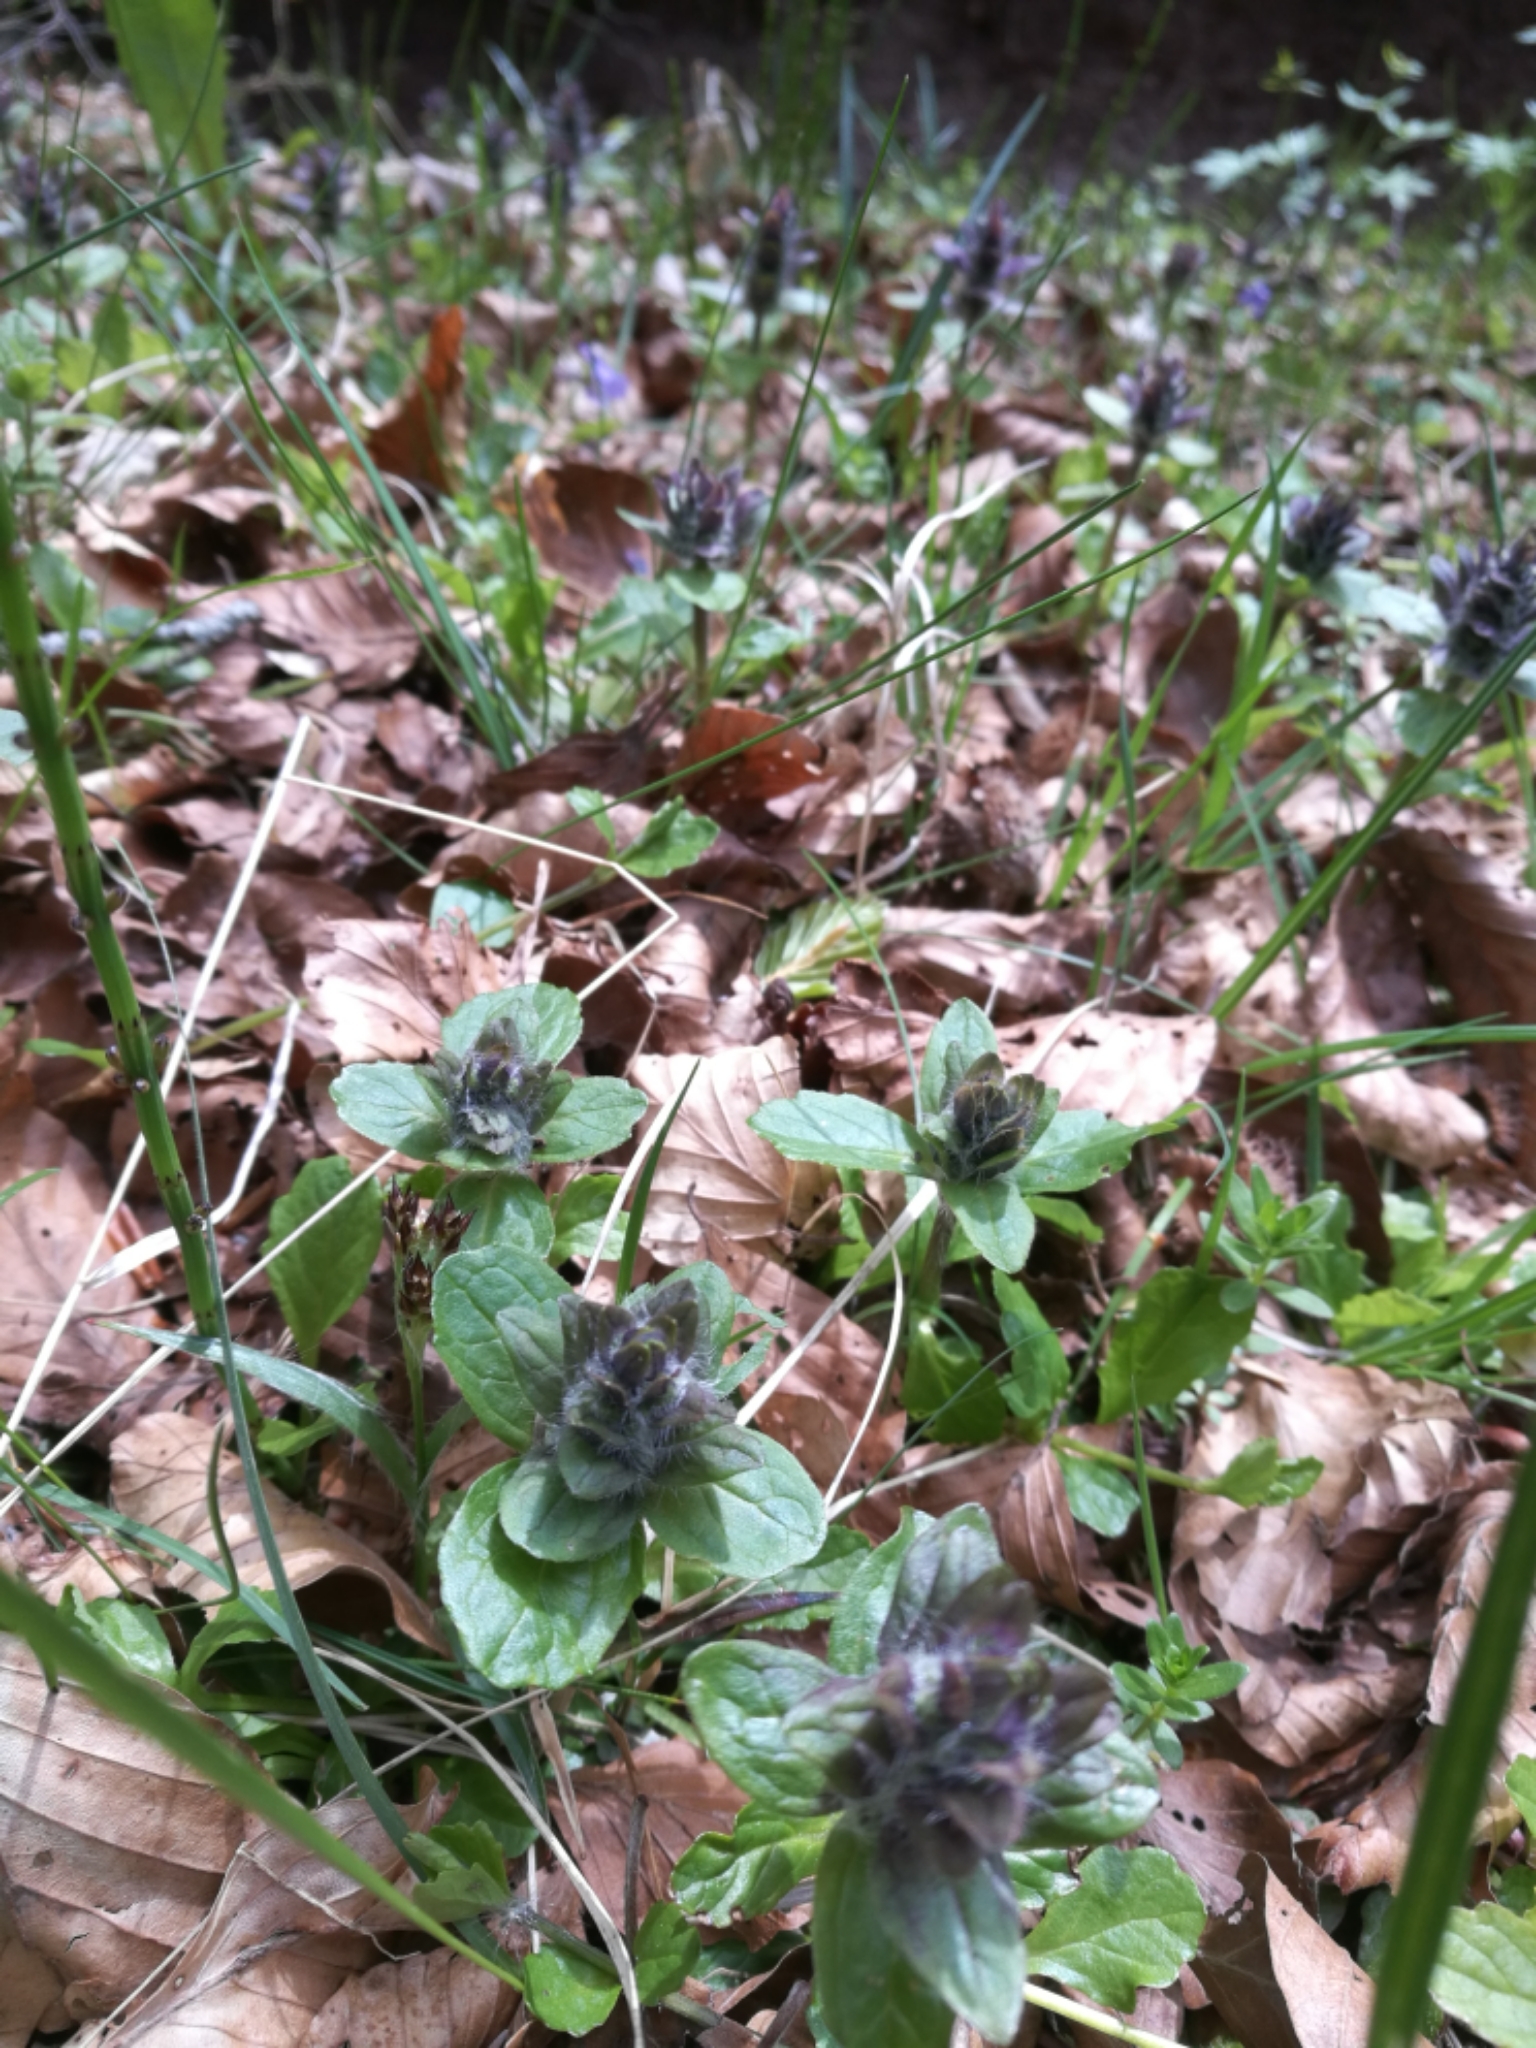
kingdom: Plantae
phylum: Tracheophyta
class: Magnoliopsida
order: Lamiales
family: Lamiaceae
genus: Ajuga
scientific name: Ajuga reptans
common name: Bugle
